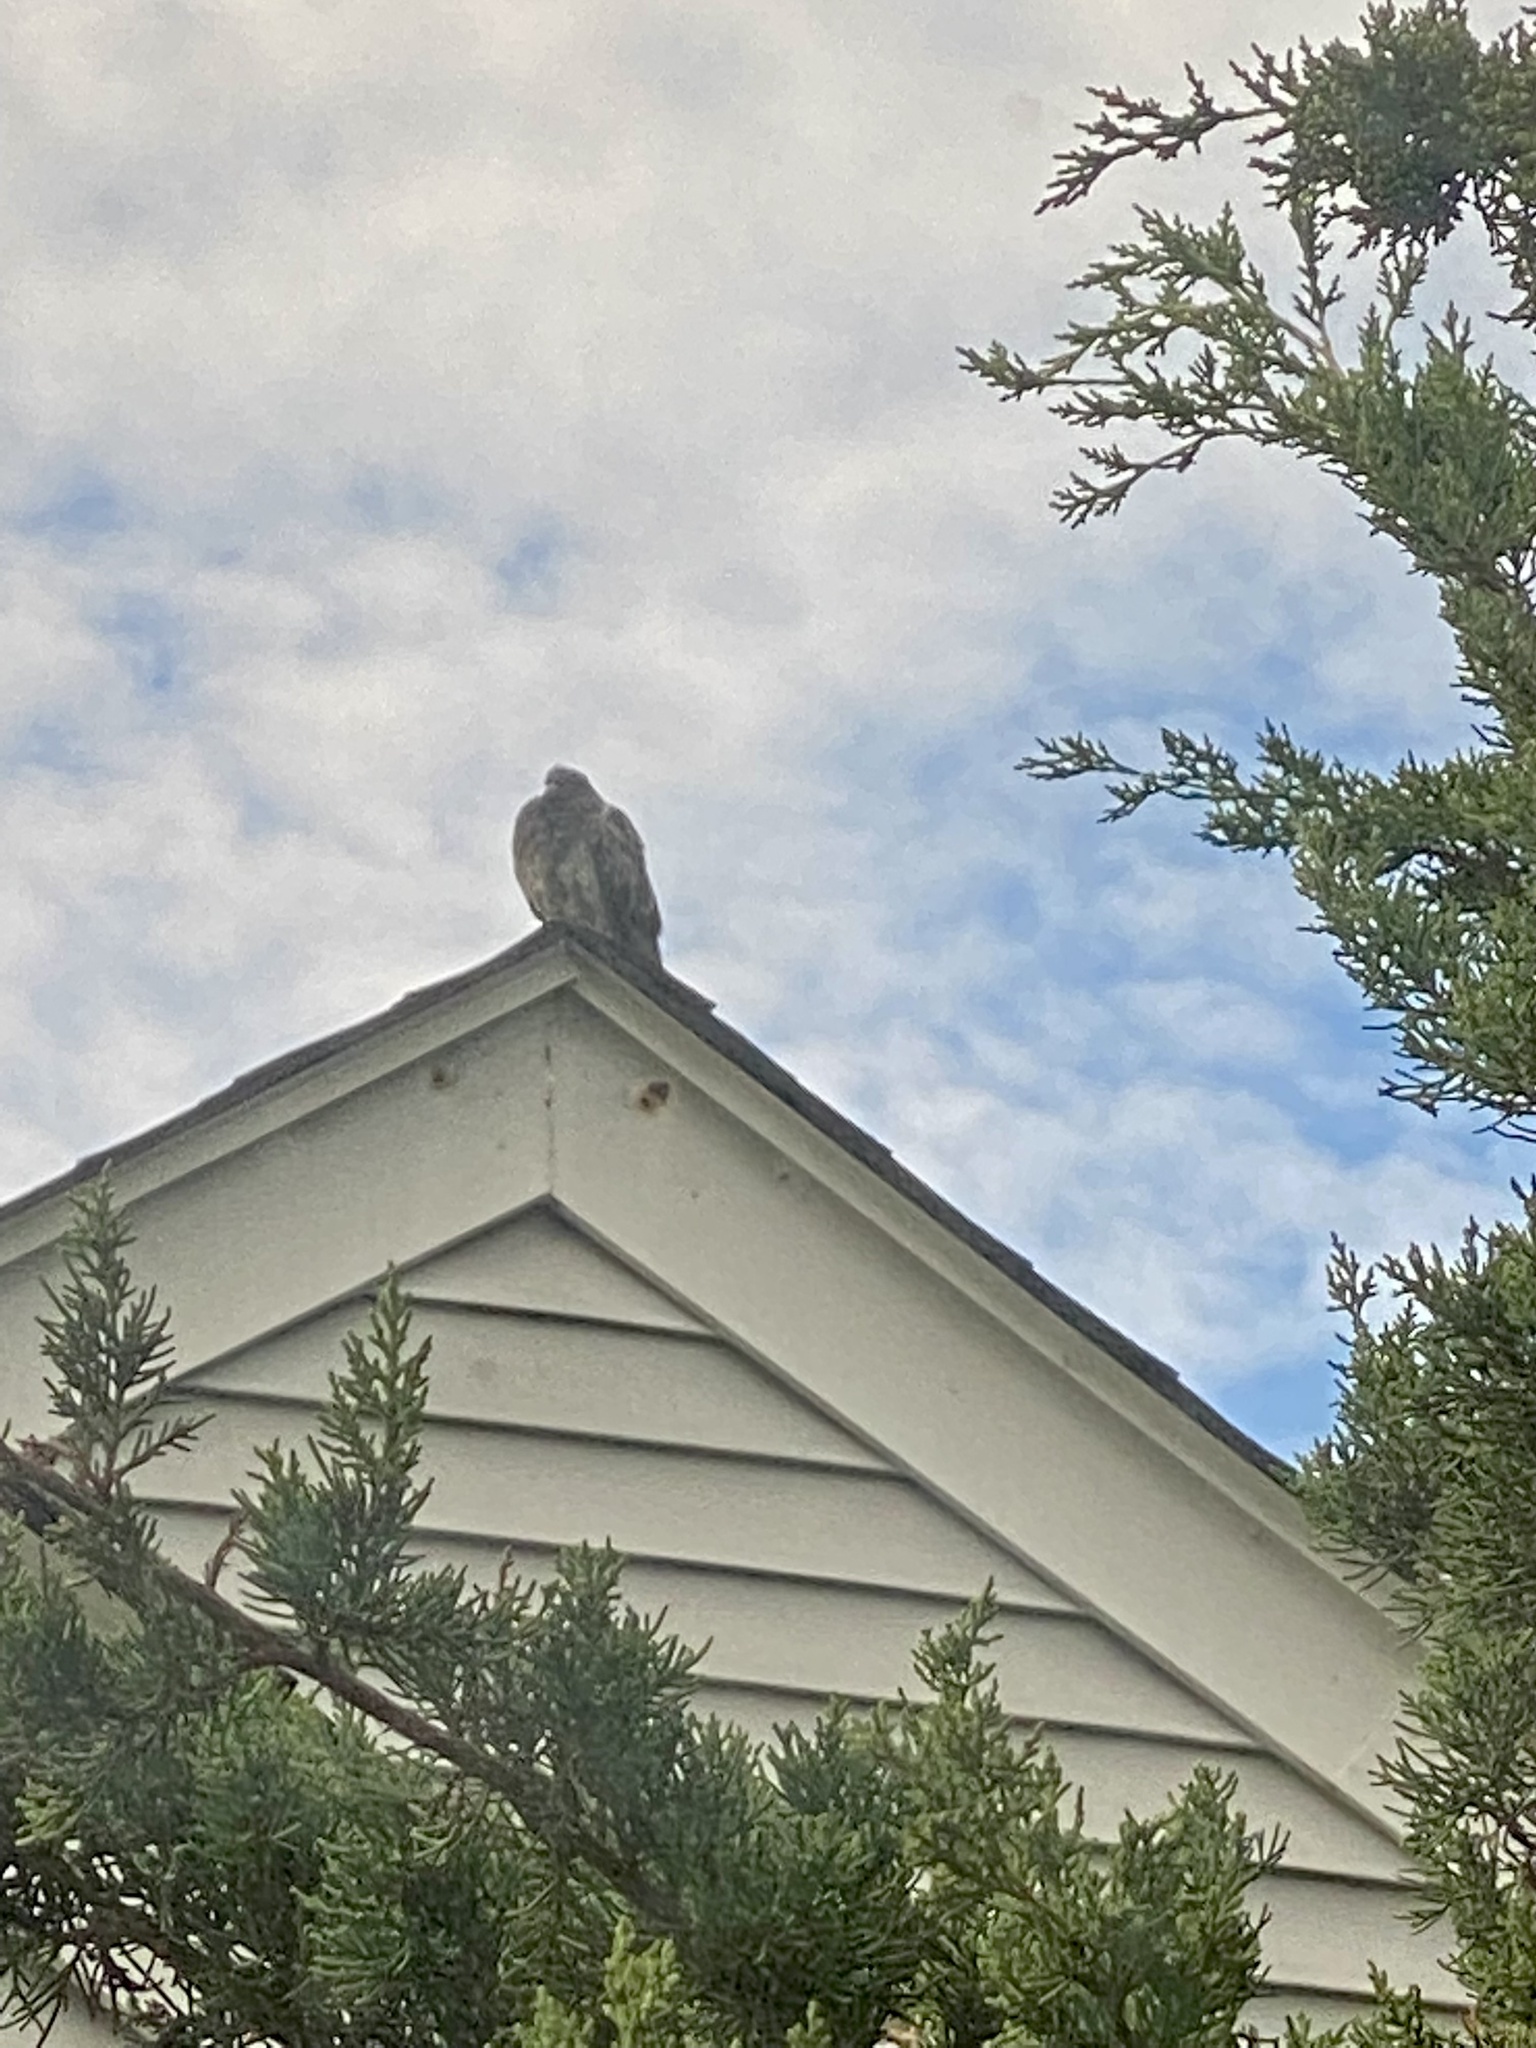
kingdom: Animalia
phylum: Chordata
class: Aves
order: Columbiformes
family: Columbidae
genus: Zenaida
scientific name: Zenaida macroura
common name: Mourning dove
